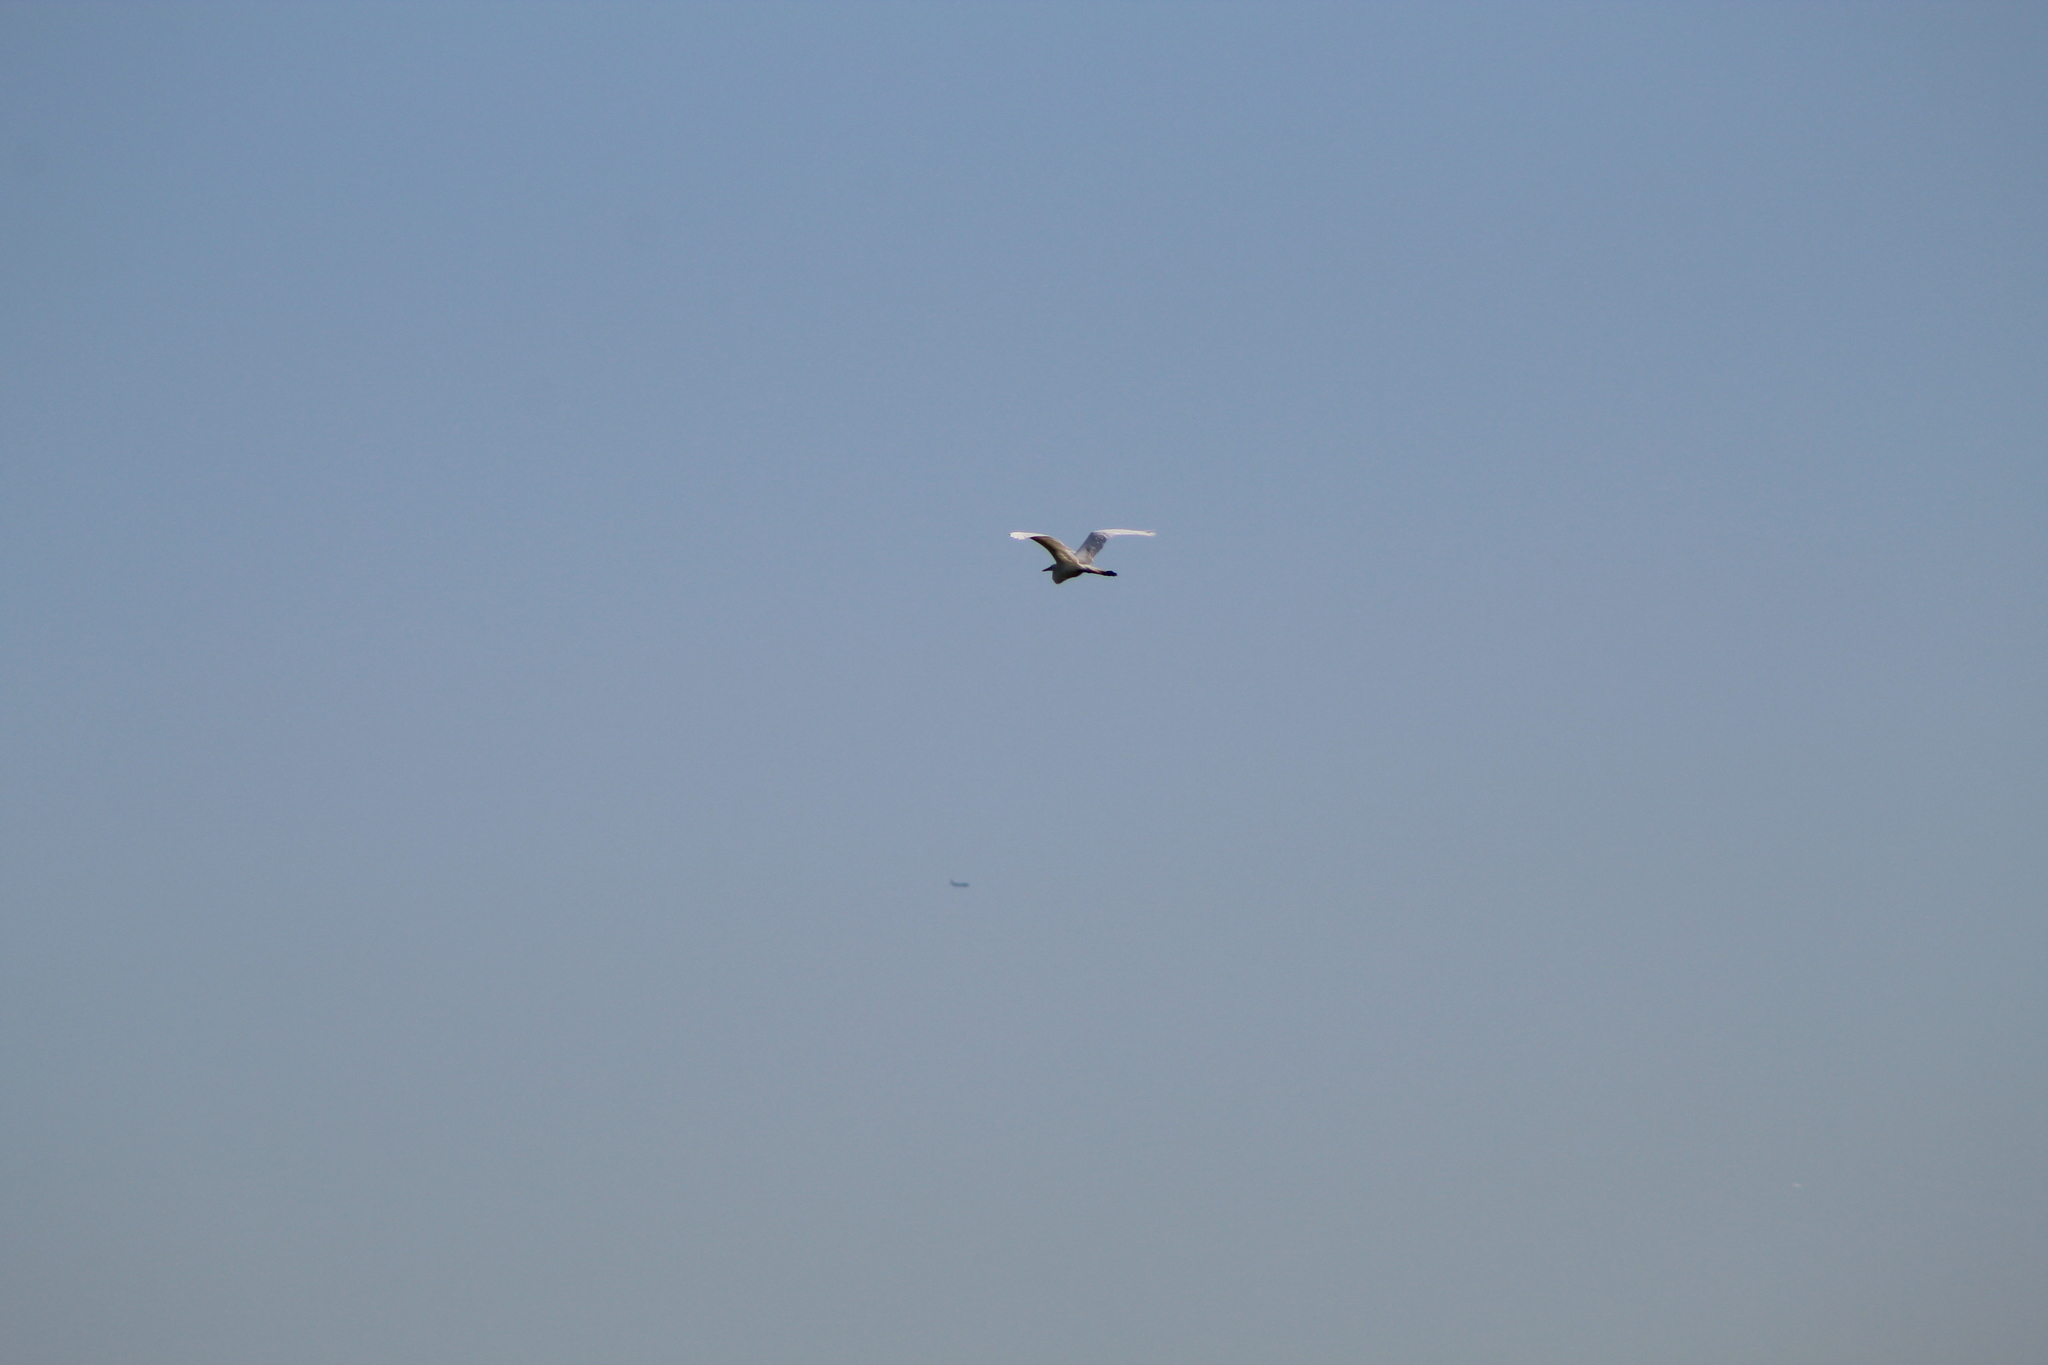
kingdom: Animalia
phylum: Chordata
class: Aves
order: Pelecaniformes
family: Ardeidae
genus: Ardea
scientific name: Ardea herodias
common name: Great blue heron
